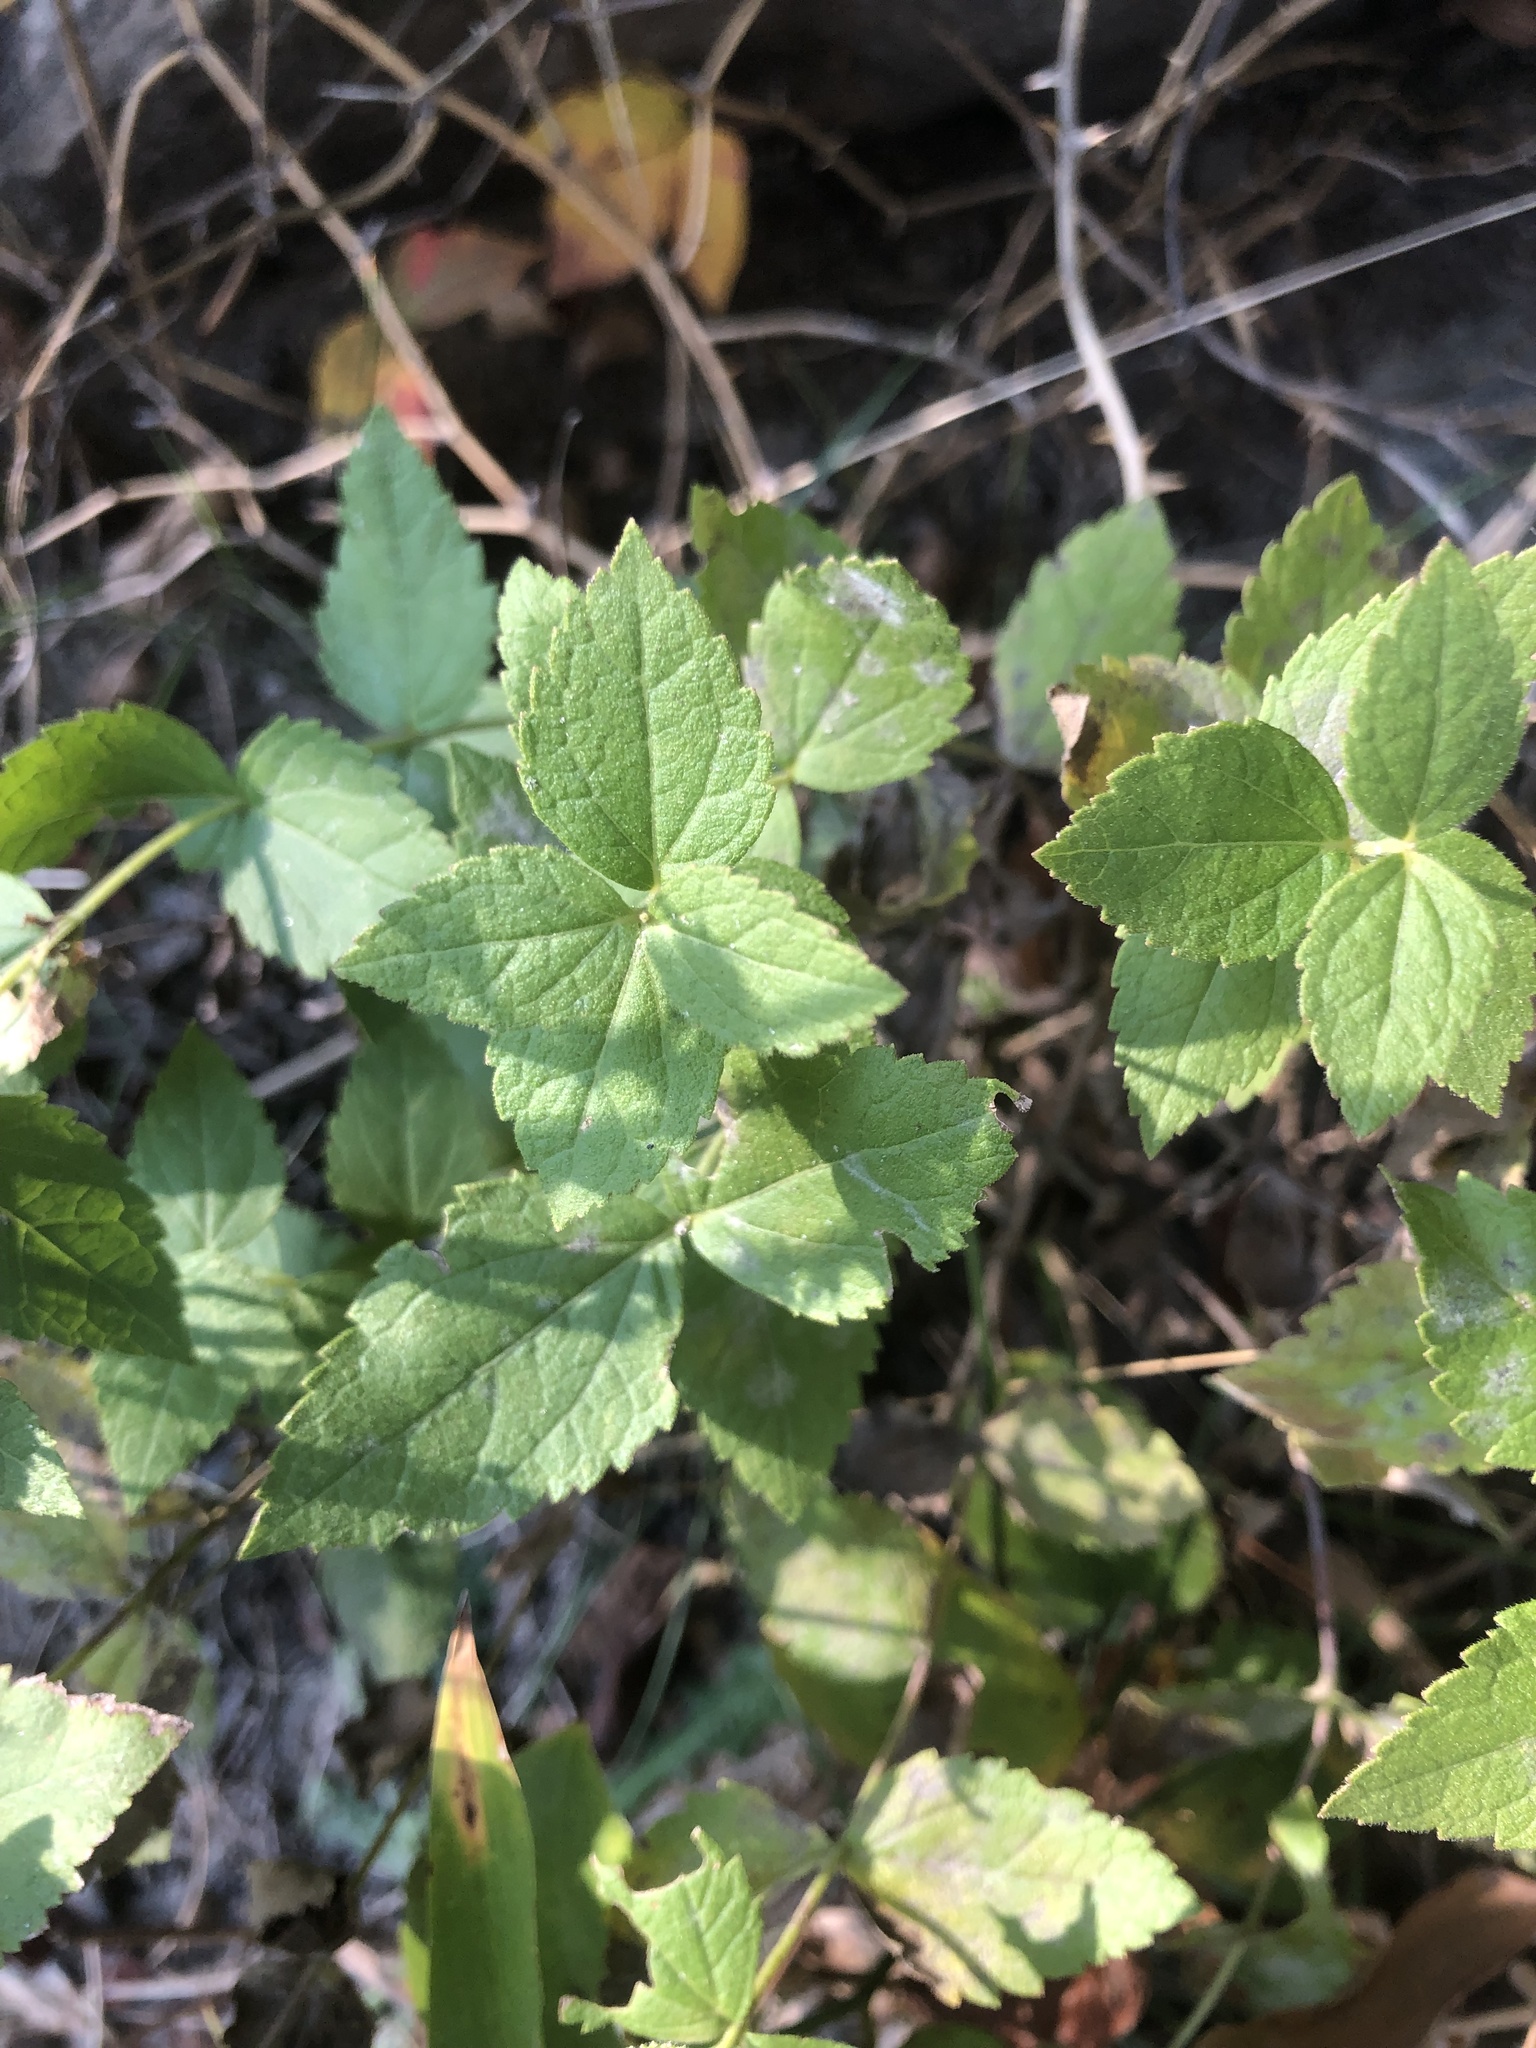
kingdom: Plantae
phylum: Tracheophyta
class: Magnoliopsida
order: Asterales
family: Asteraceae
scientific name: Asteraceae
